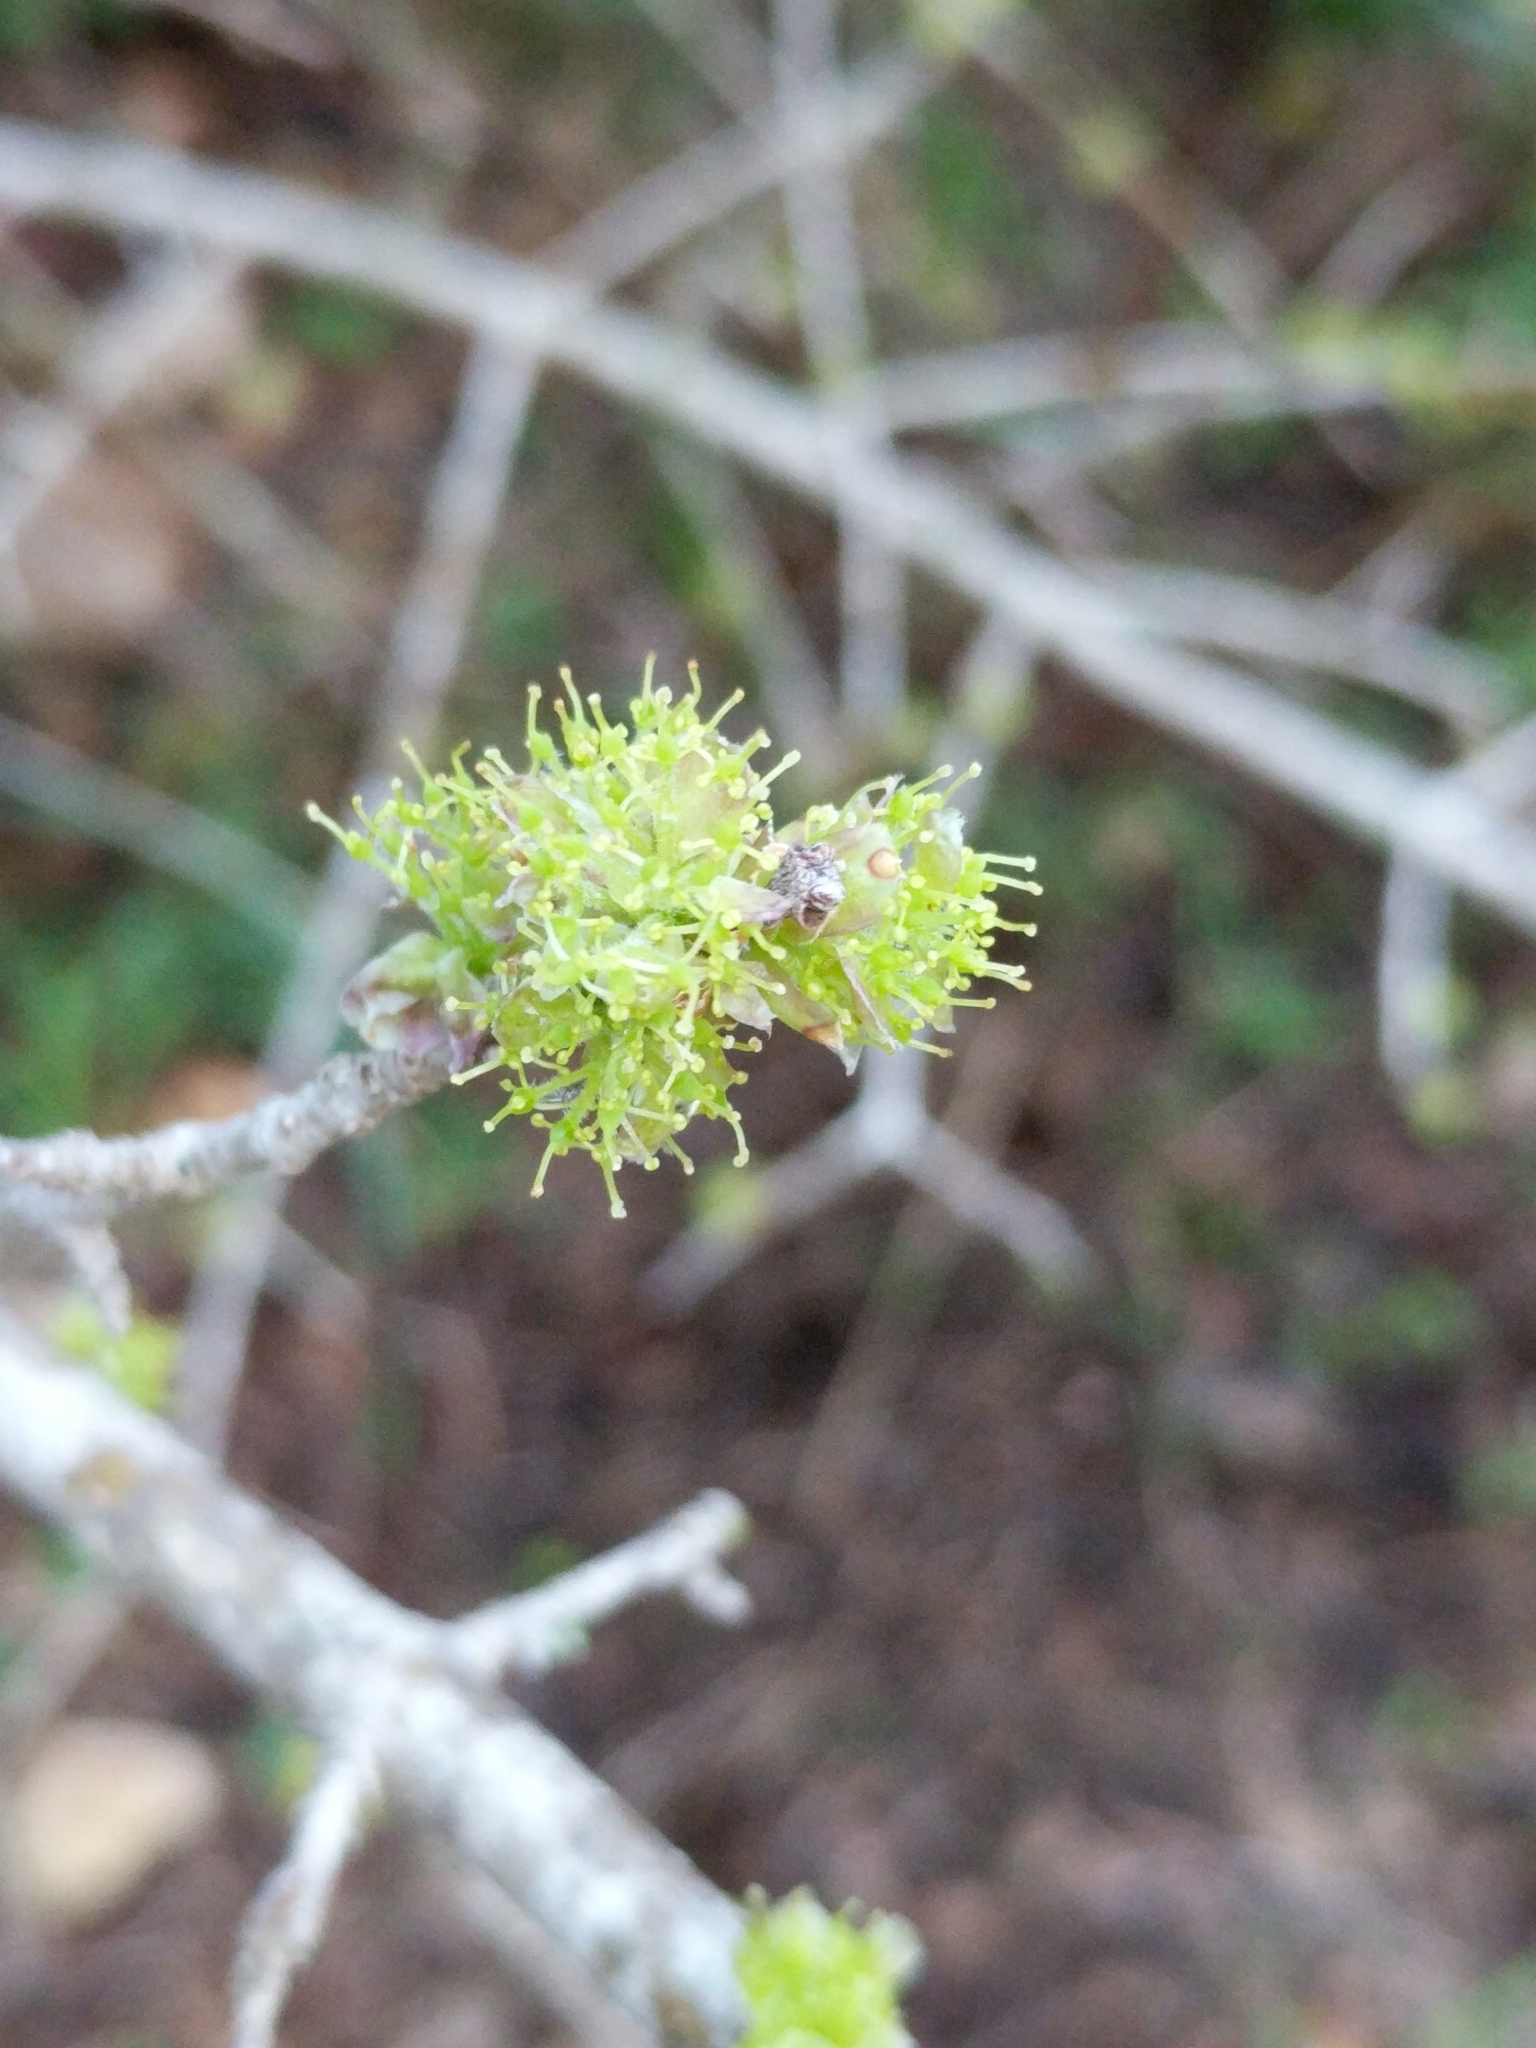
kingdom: Plantae
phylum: Tracheophyta
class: Magnoliopsida
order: Lamiales
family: Oleaceae
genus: Forestiera
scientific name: Forestiera pubescens
